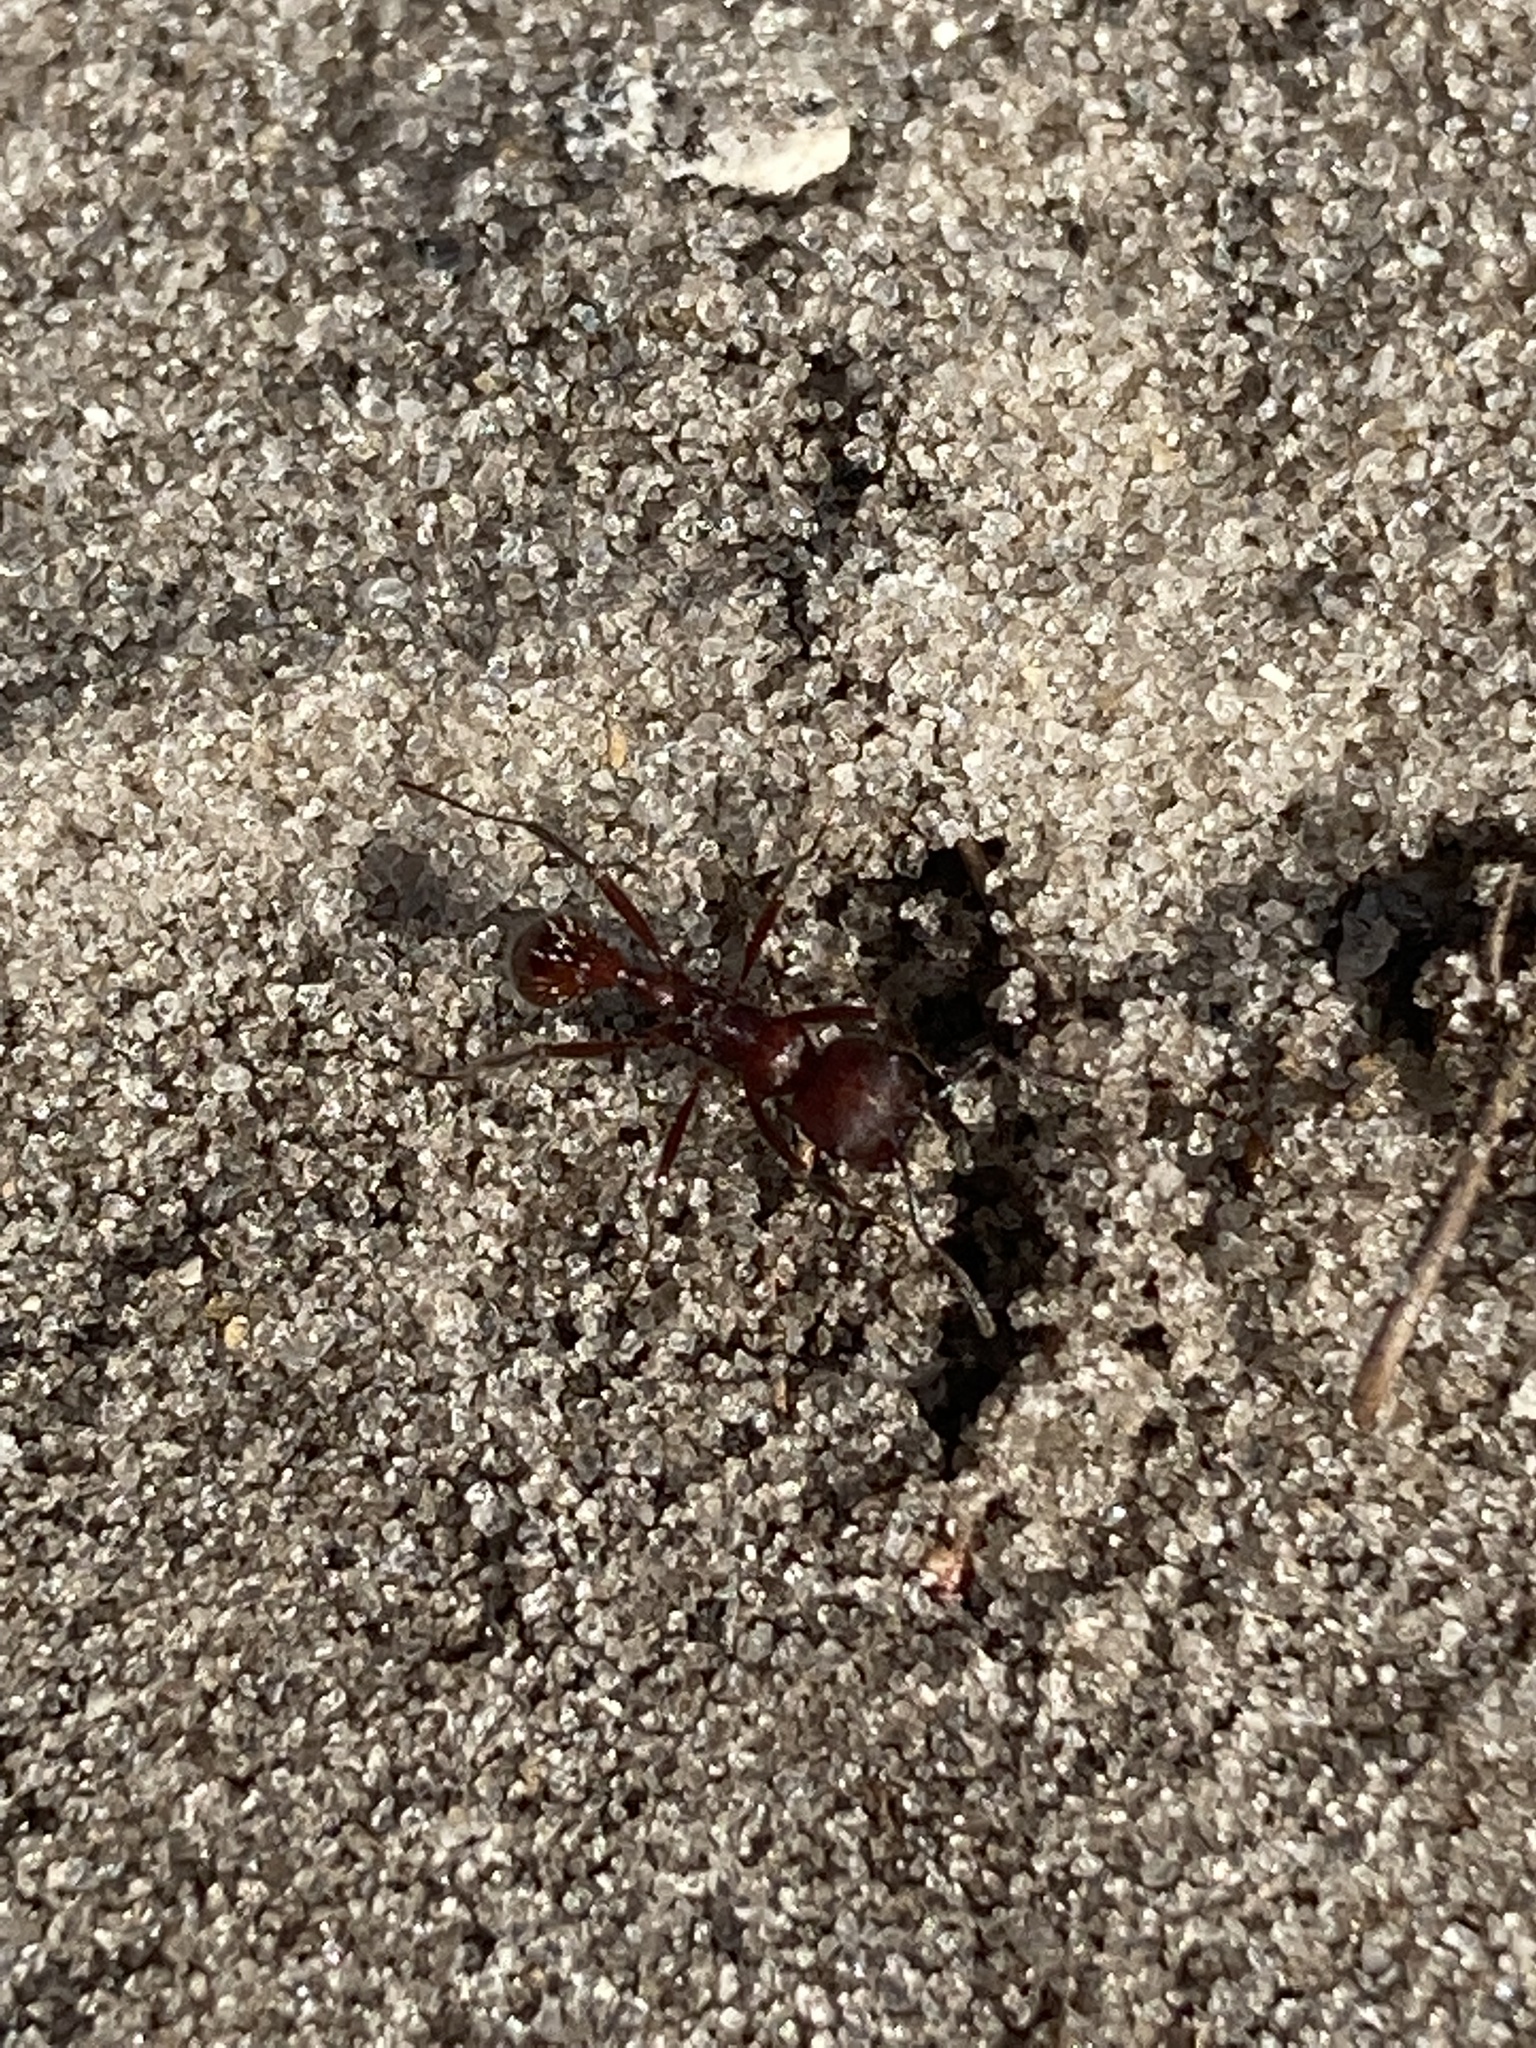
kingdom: Animalia
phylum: Arthropoda
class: Insecta
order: Hymenoptera
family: Formicidae
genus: Pogonomyrmex
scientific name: Pogonomyrmex badius
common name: Florida harvester ant
